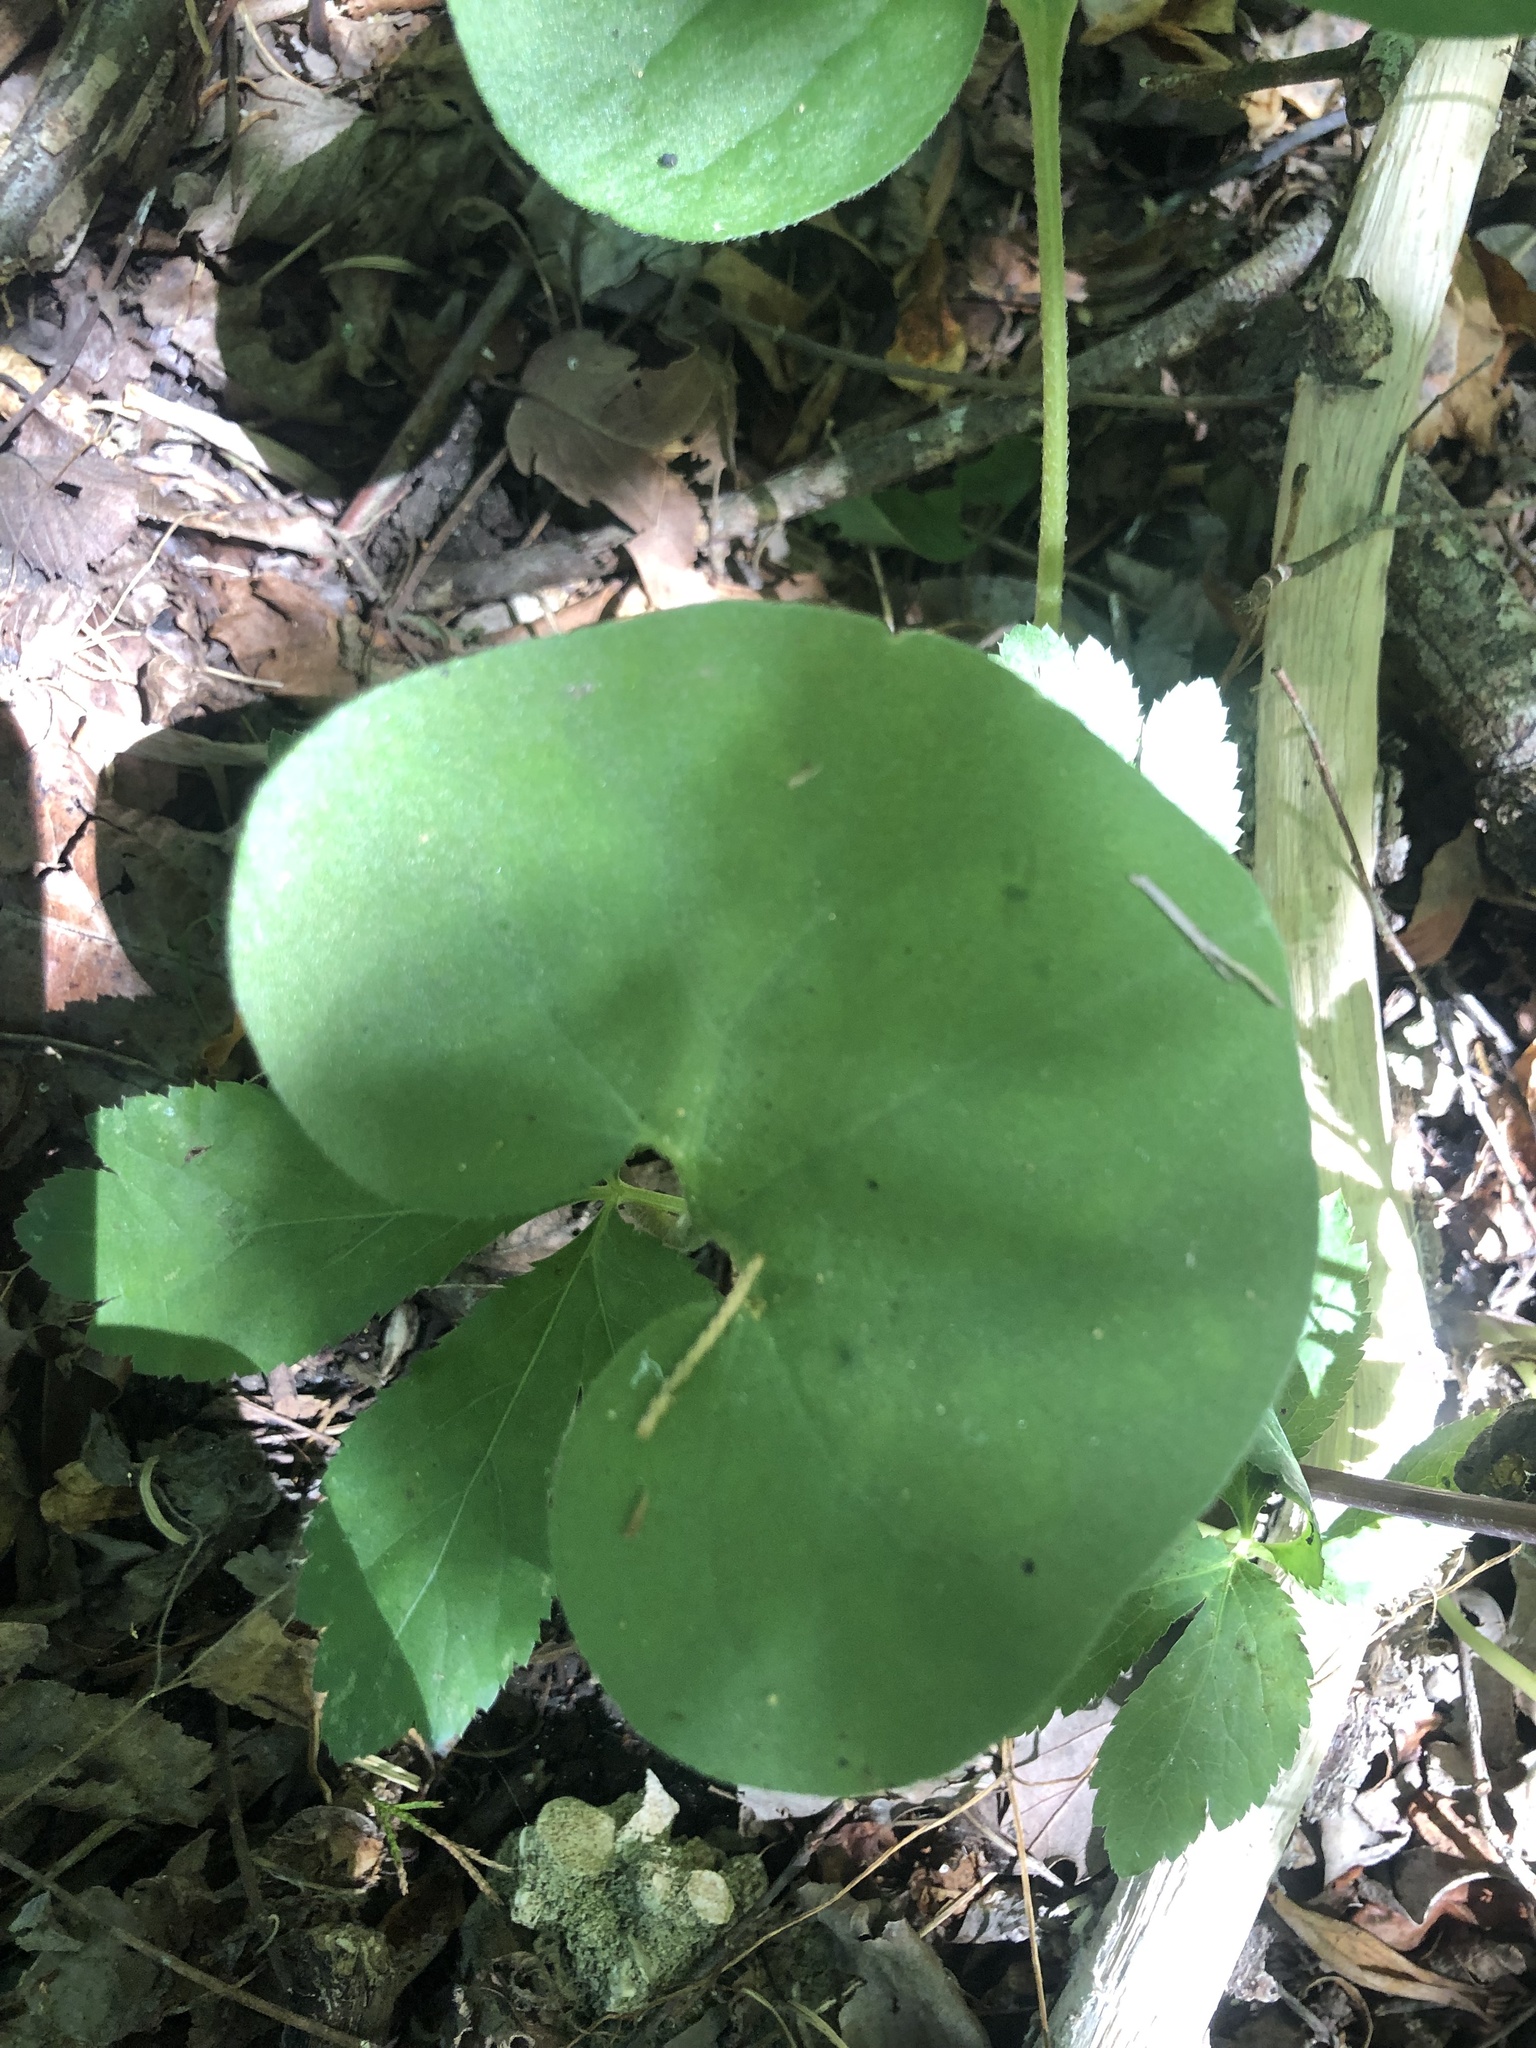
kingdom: Plantae
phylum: Tracheophyta
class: Magnoliopsida
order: Piperales
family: Aristolochiaceae
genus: Asarum
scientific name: Asarum canadense
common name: Wild ginger
